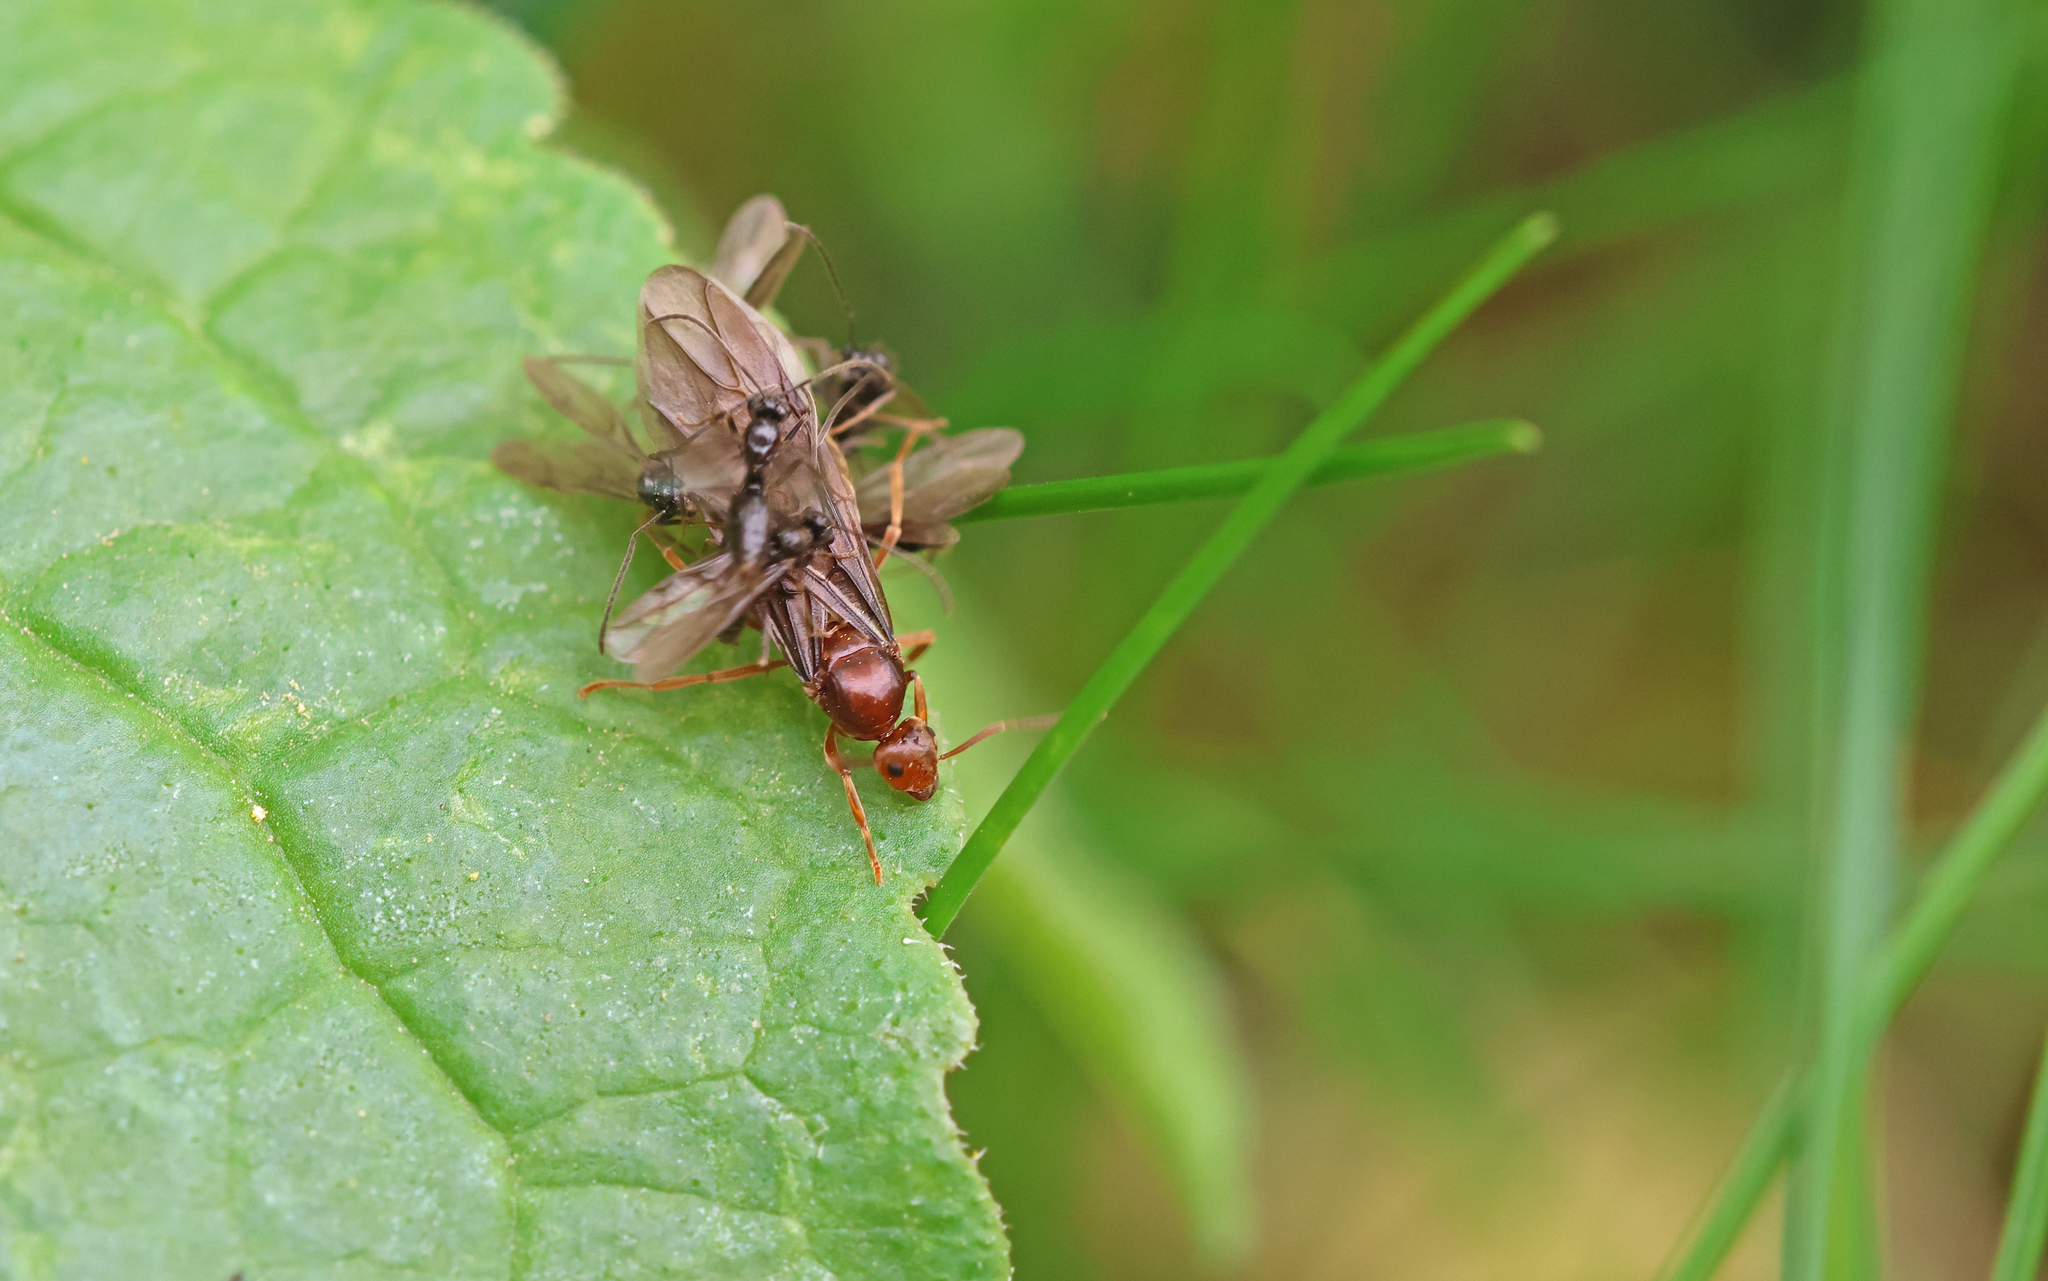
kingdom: Animalia
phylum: Arthropoda
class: Insecta
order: Hymenoptera
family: Formicidae
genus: Prenolepis
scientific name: Prenolepis nitens
